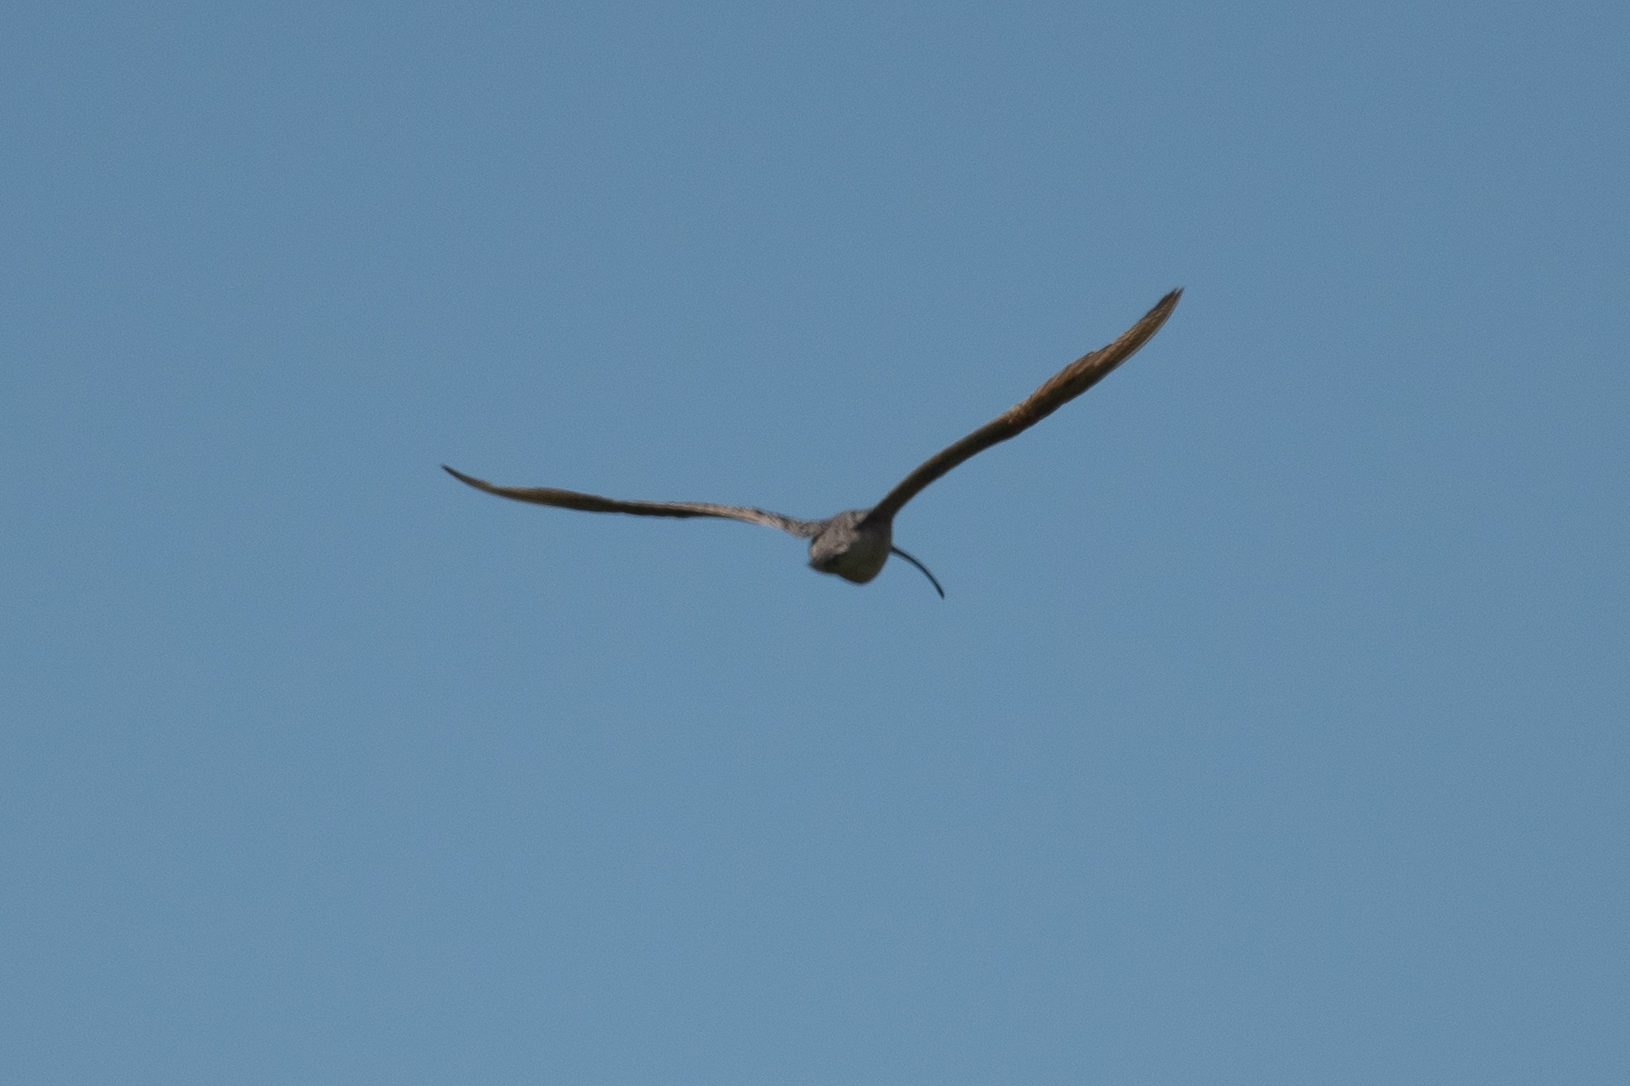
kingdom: Animalia
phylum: Chordata
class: Aves
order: Charadriiformes
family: Scolopacidae
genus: Numenius
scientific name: Numenius americanus
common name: Long-billed curlew
